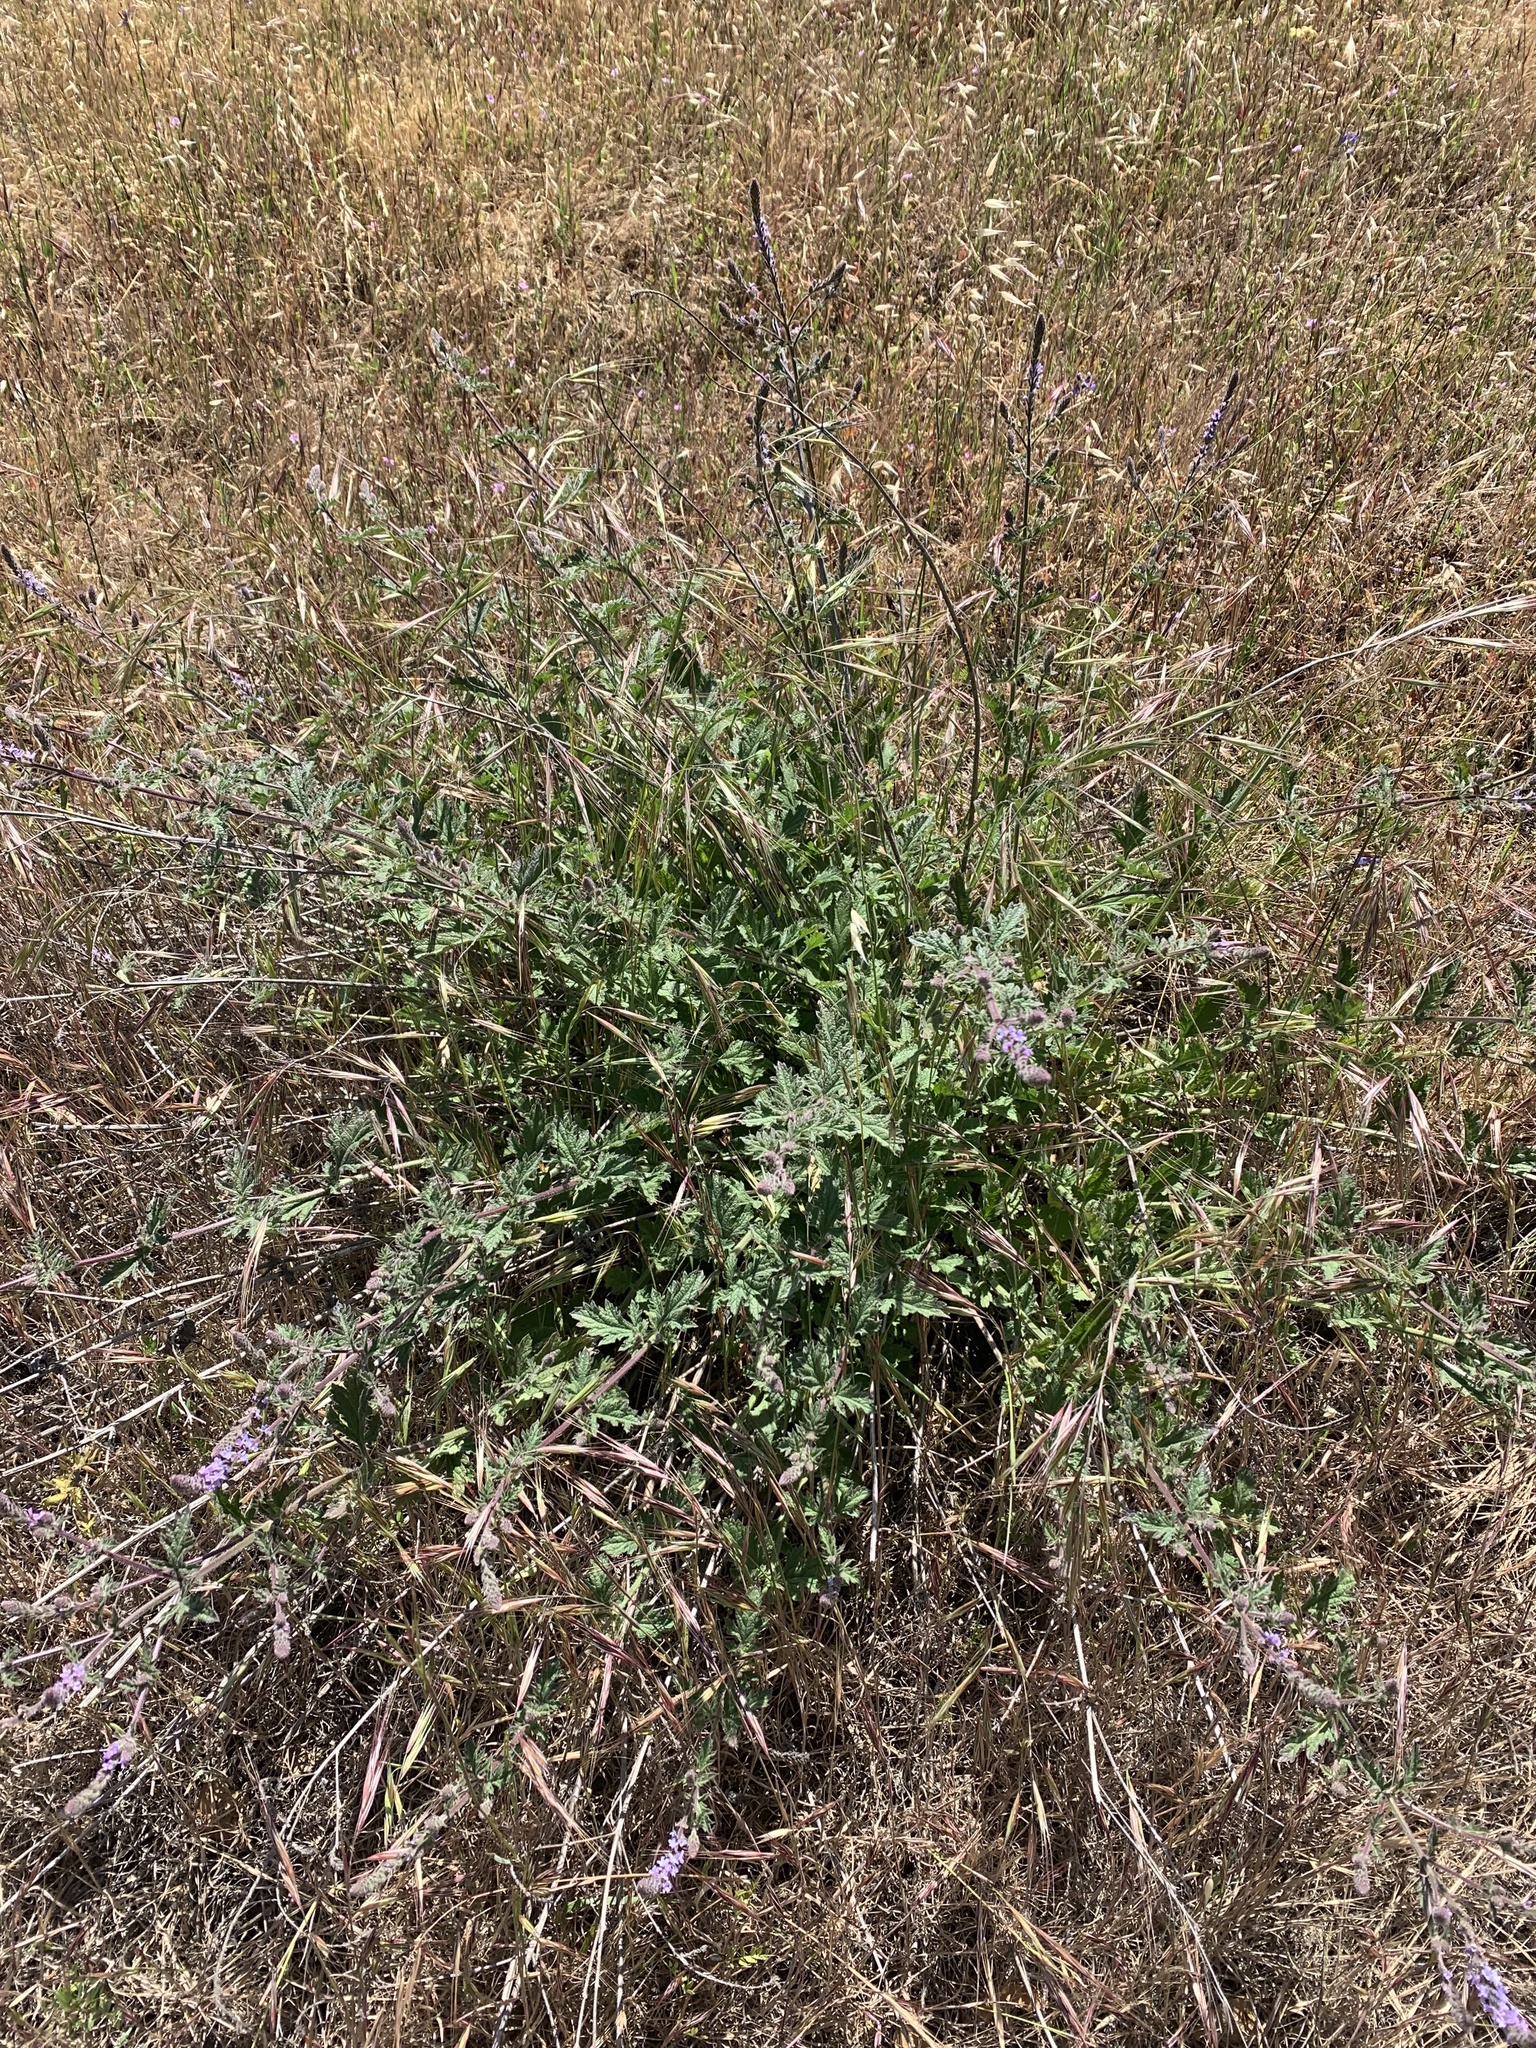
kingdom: Plantae
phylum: Tracheophyta
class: Magnoliopsida
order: Lamiales
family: Verbenaceae
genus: Verbena
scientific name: Verbena lasiostachys
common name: Vervain
